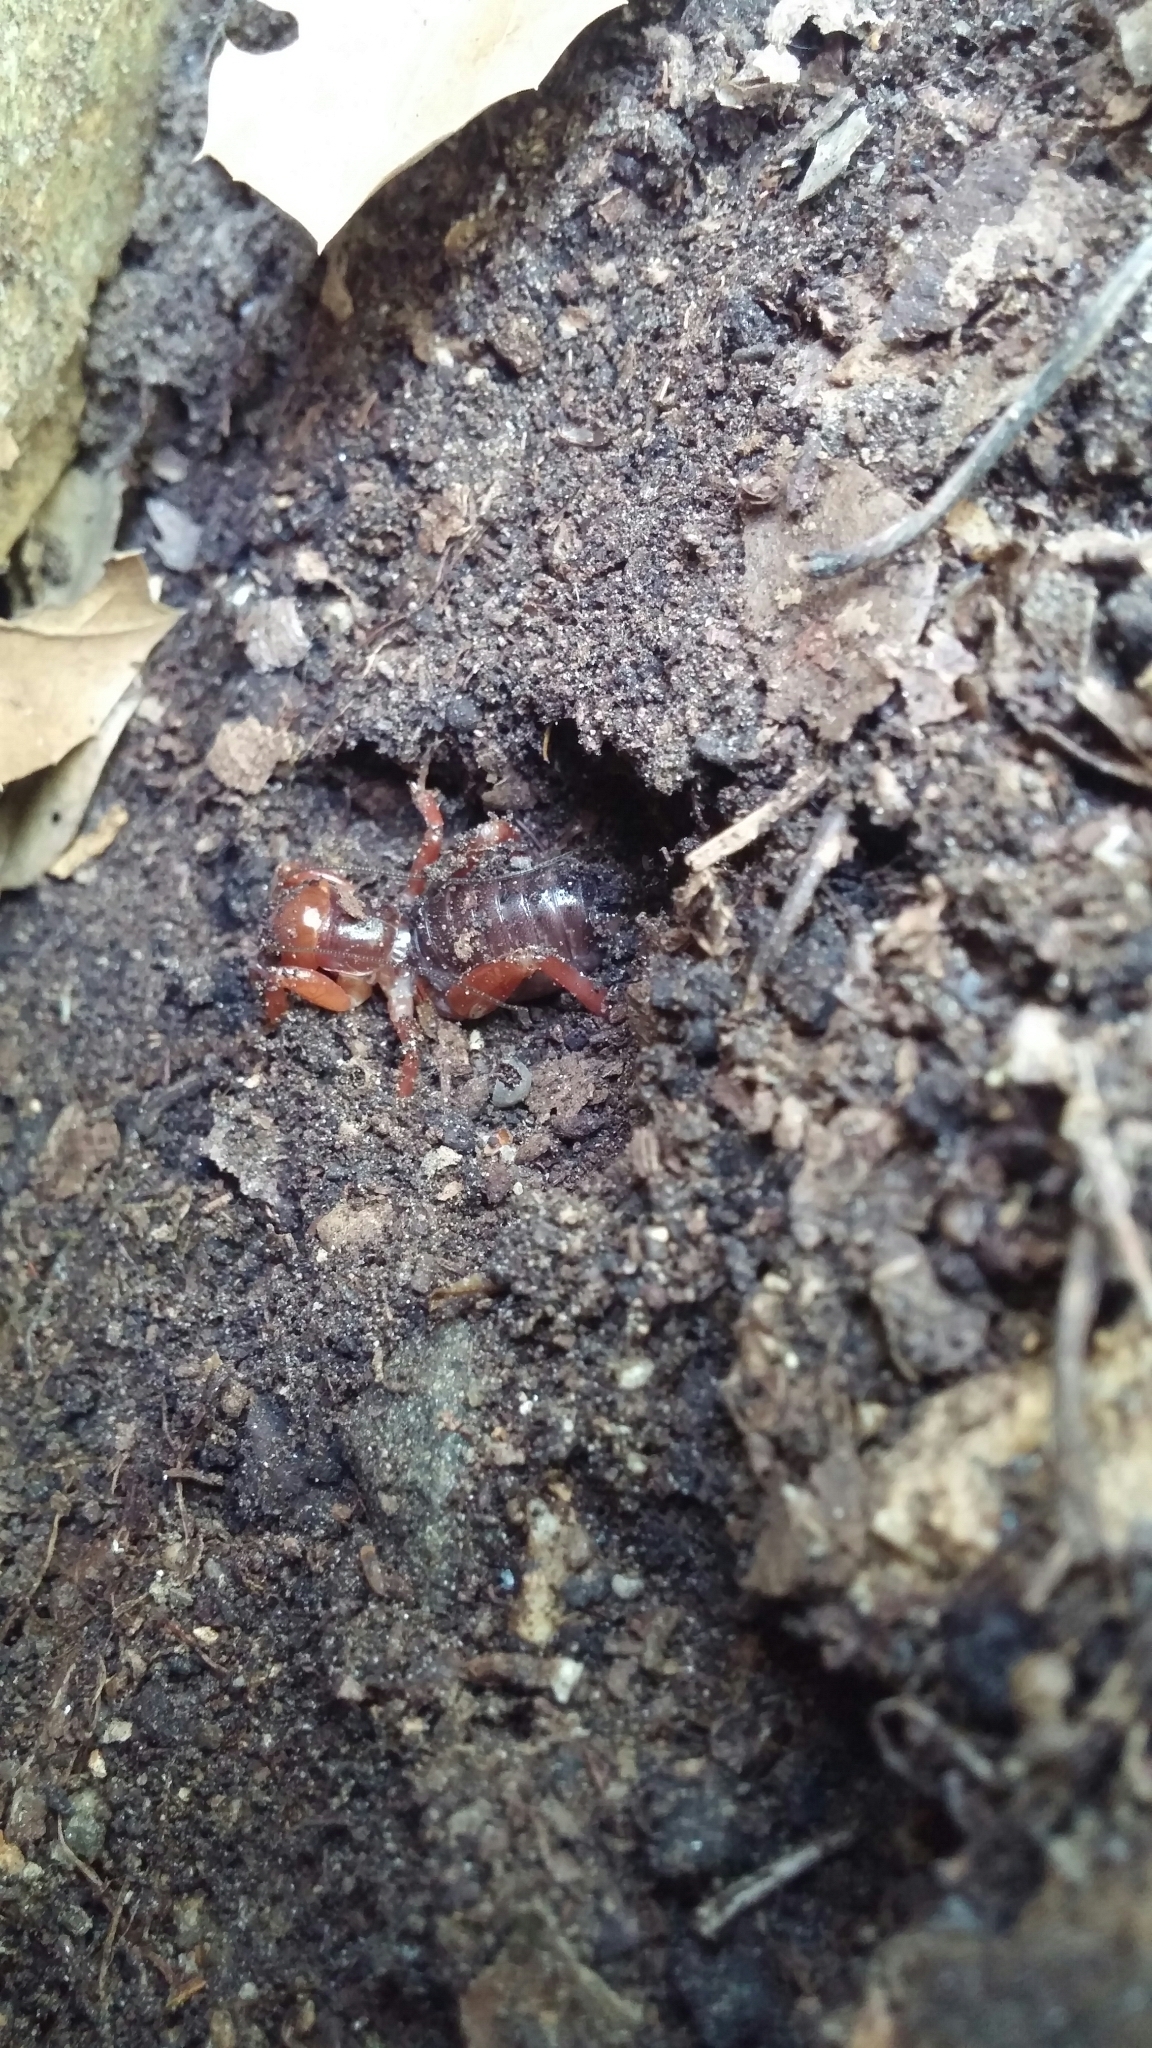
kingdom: Animalia
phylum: Arthropoda
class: Insecta
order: Orthoptera
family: Stenopelmatidae
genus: Ammopelmatus
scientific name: Ammopelmatus
